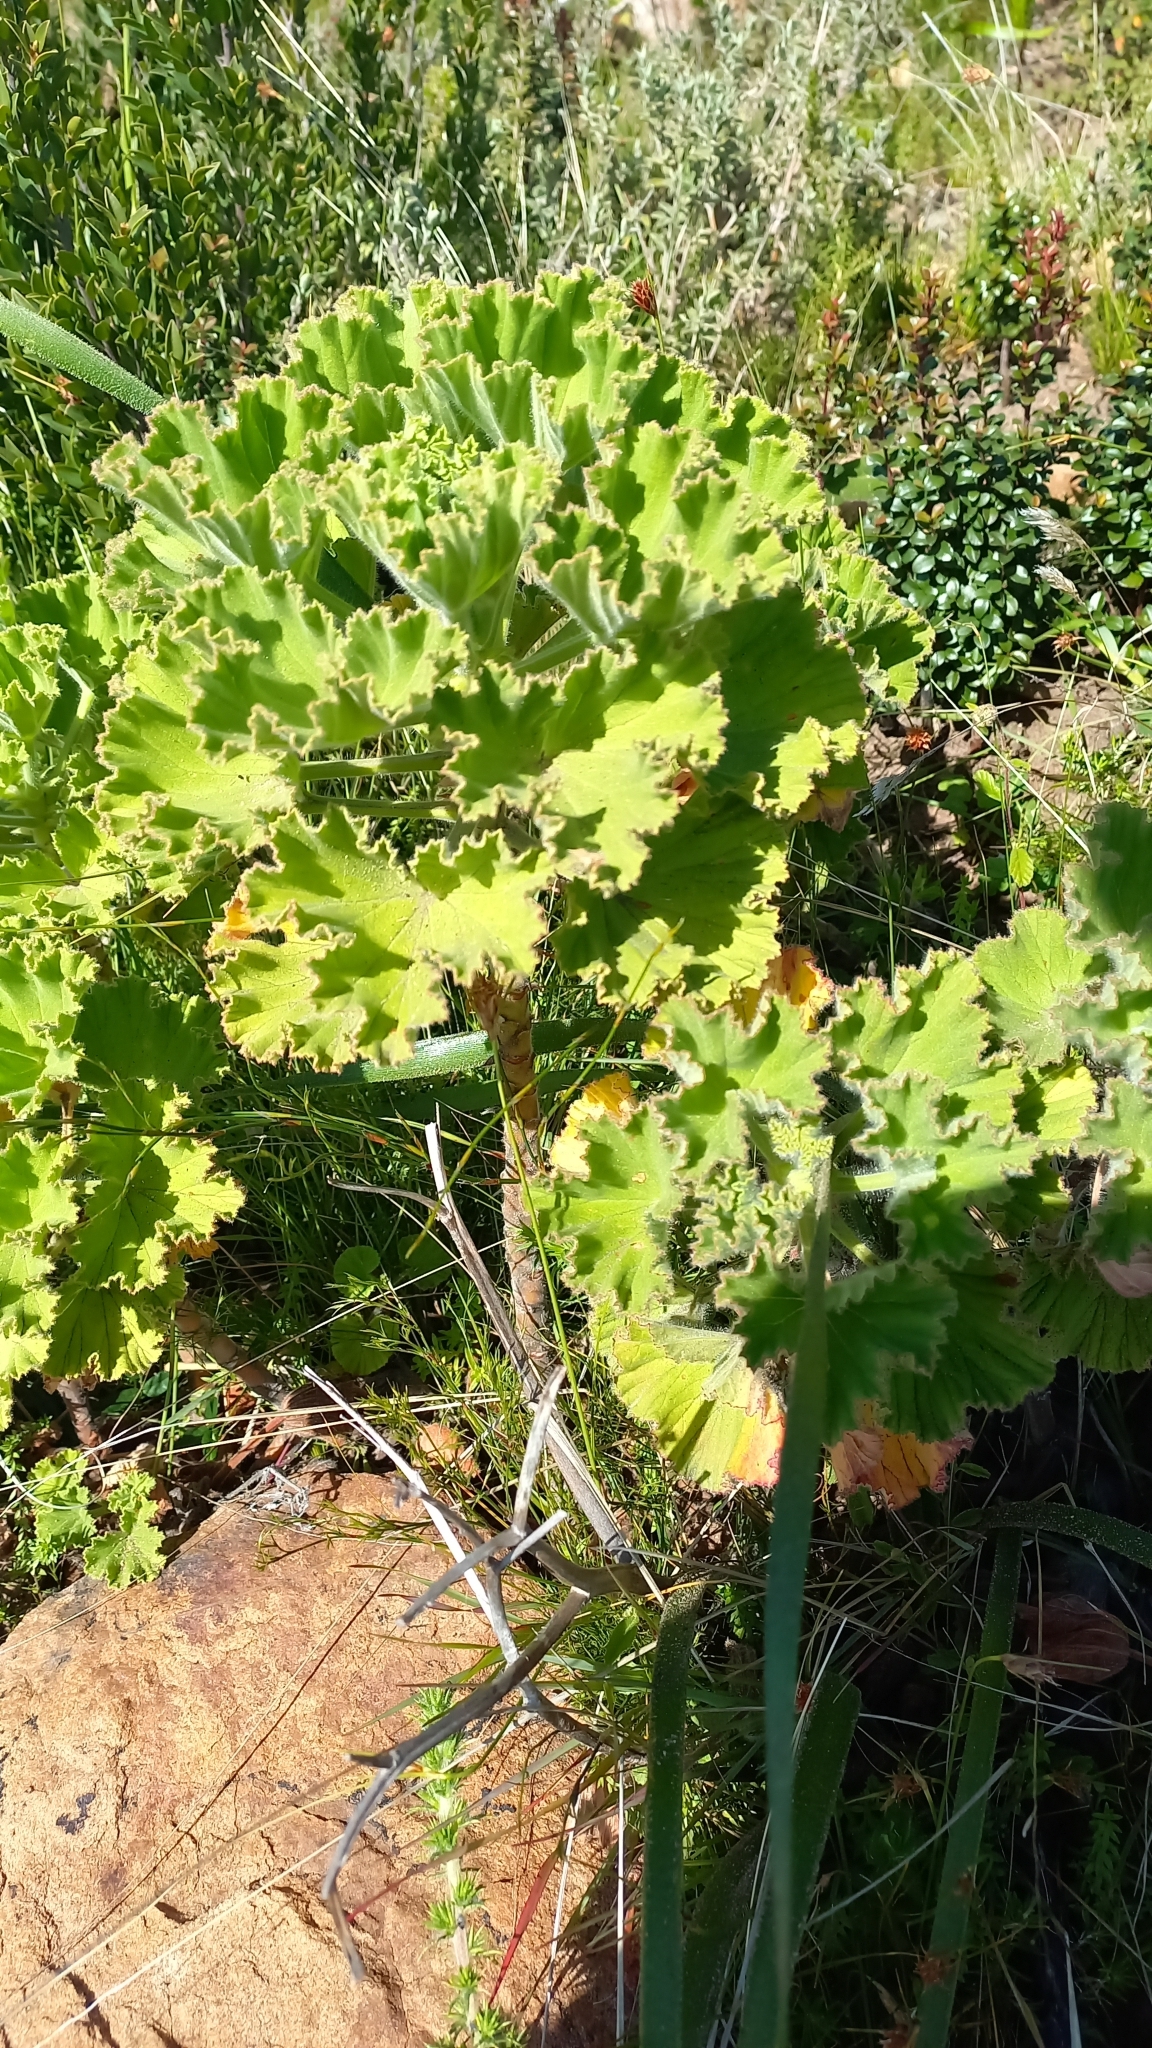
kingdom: Plantae
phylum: Tracheophyta
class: Magnoliopsida
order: Geraniales
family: Geraniaceae
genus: Pelargonium
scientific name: Pelargonium cucullatum
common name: Tree pelargonium
